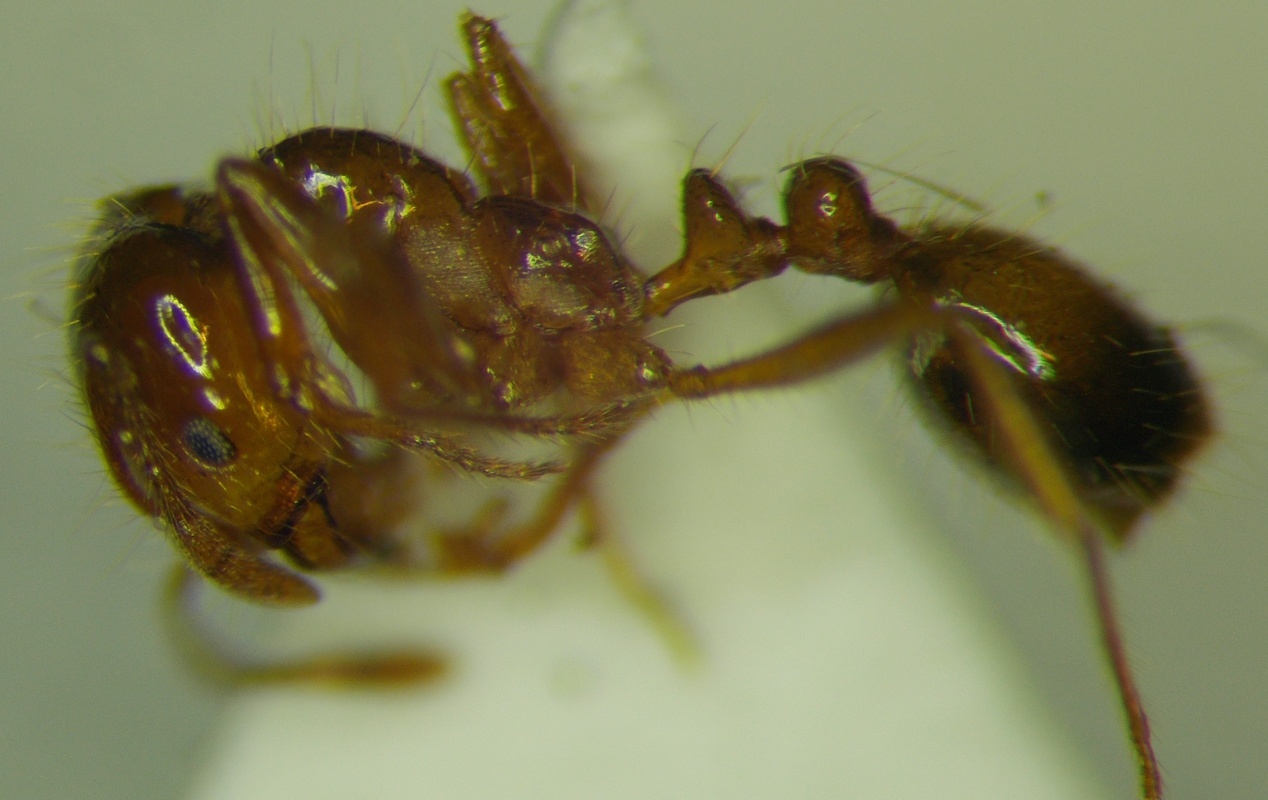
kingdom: Animalia
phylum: Arthropoda
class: Insecta
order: Hymenoptera
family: Formicidae
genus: Solenopsis
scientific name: Solenopsis geminata
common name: Tropical fire ant
